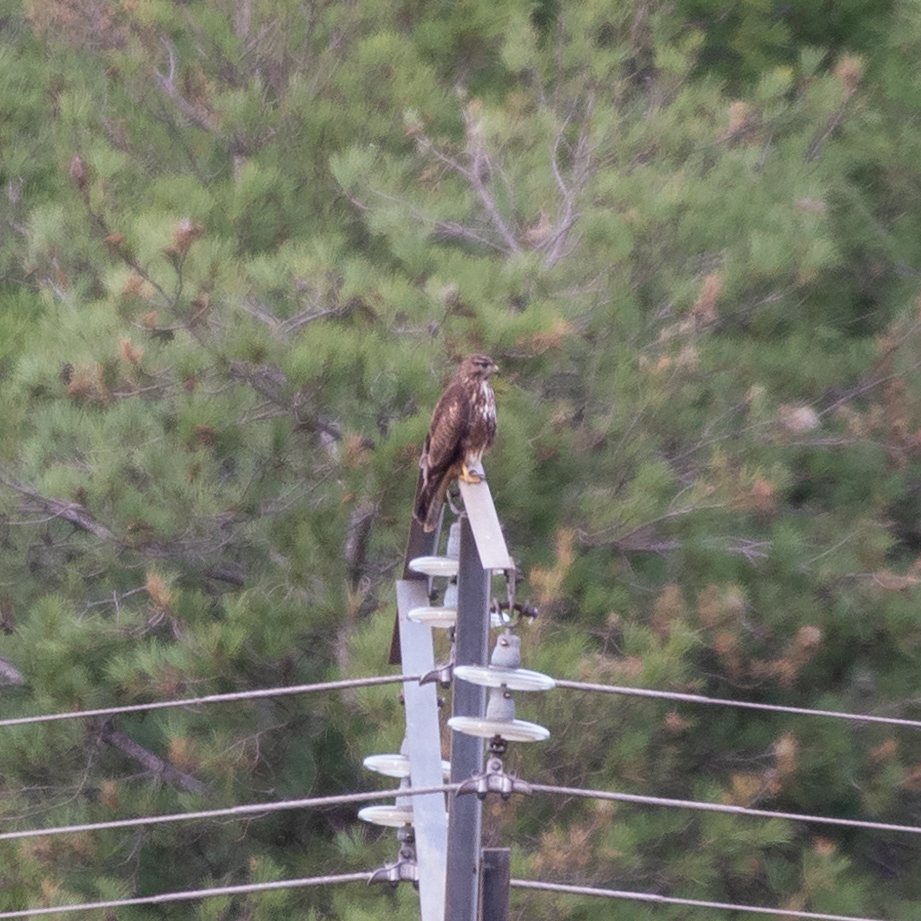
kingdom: Animalia
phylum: Chordata
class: Aves
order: Accipitriformes
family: Accipitridae
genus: Buteo
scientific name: Buteo buteo
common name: Common buzzard
